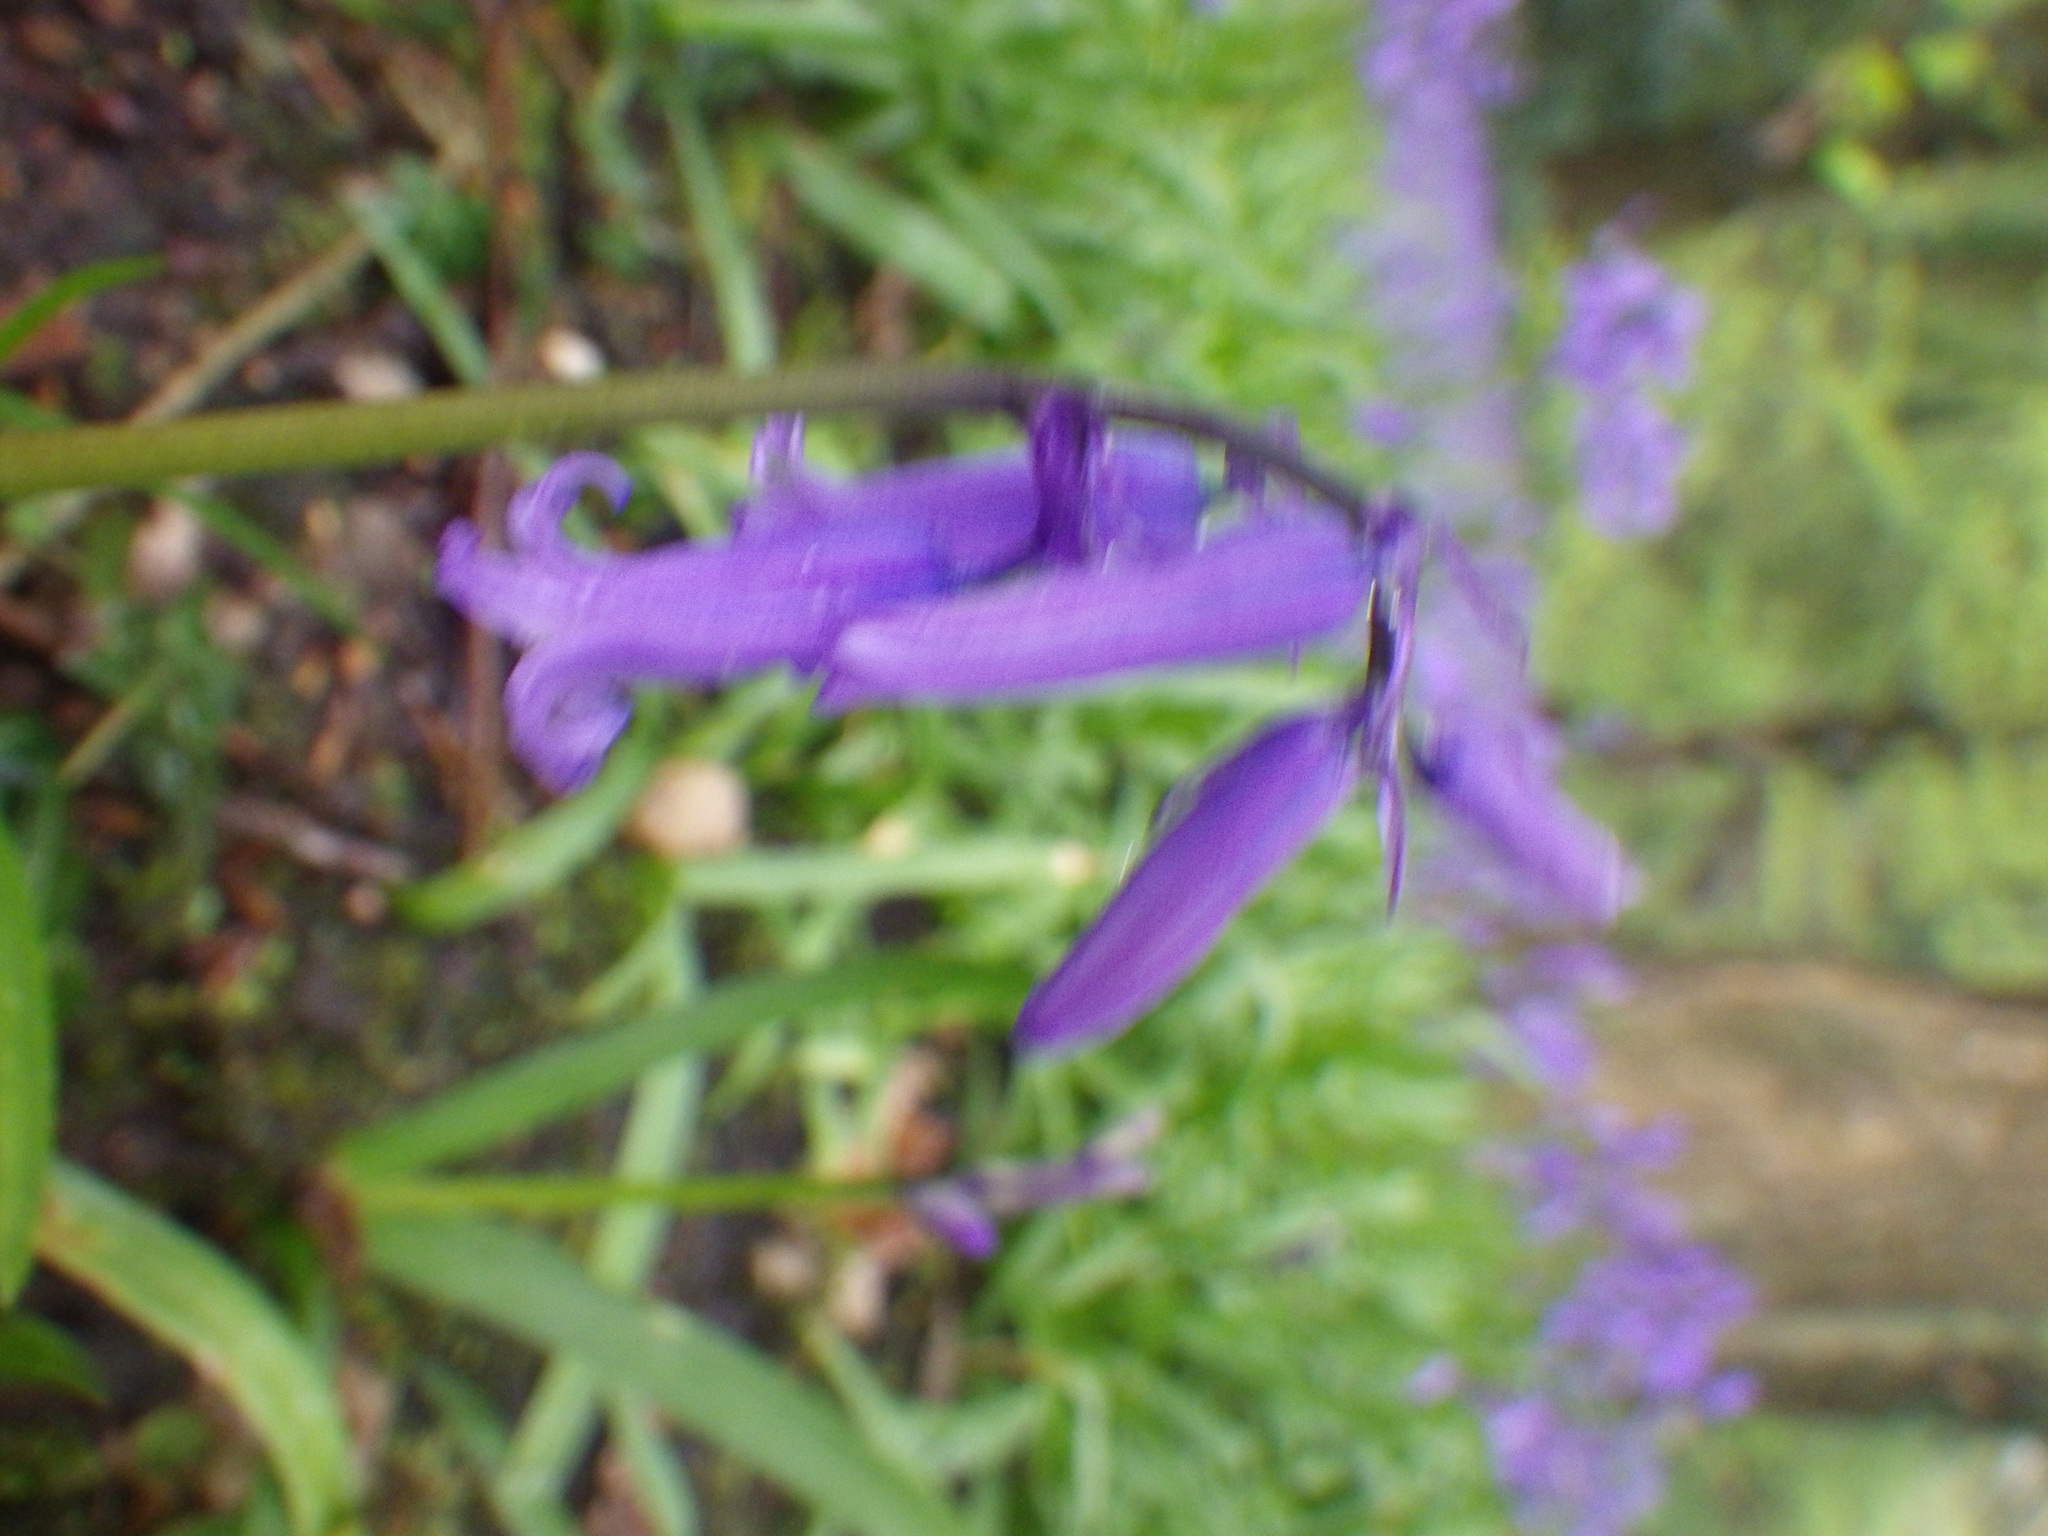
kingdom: Plantae
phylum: Tracheophyta
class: Liliopsida
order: Asparagales
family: Asparagaceae
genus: Hyacinthoides
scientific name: Hyacinthoides non-scripta
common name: Bluebell
